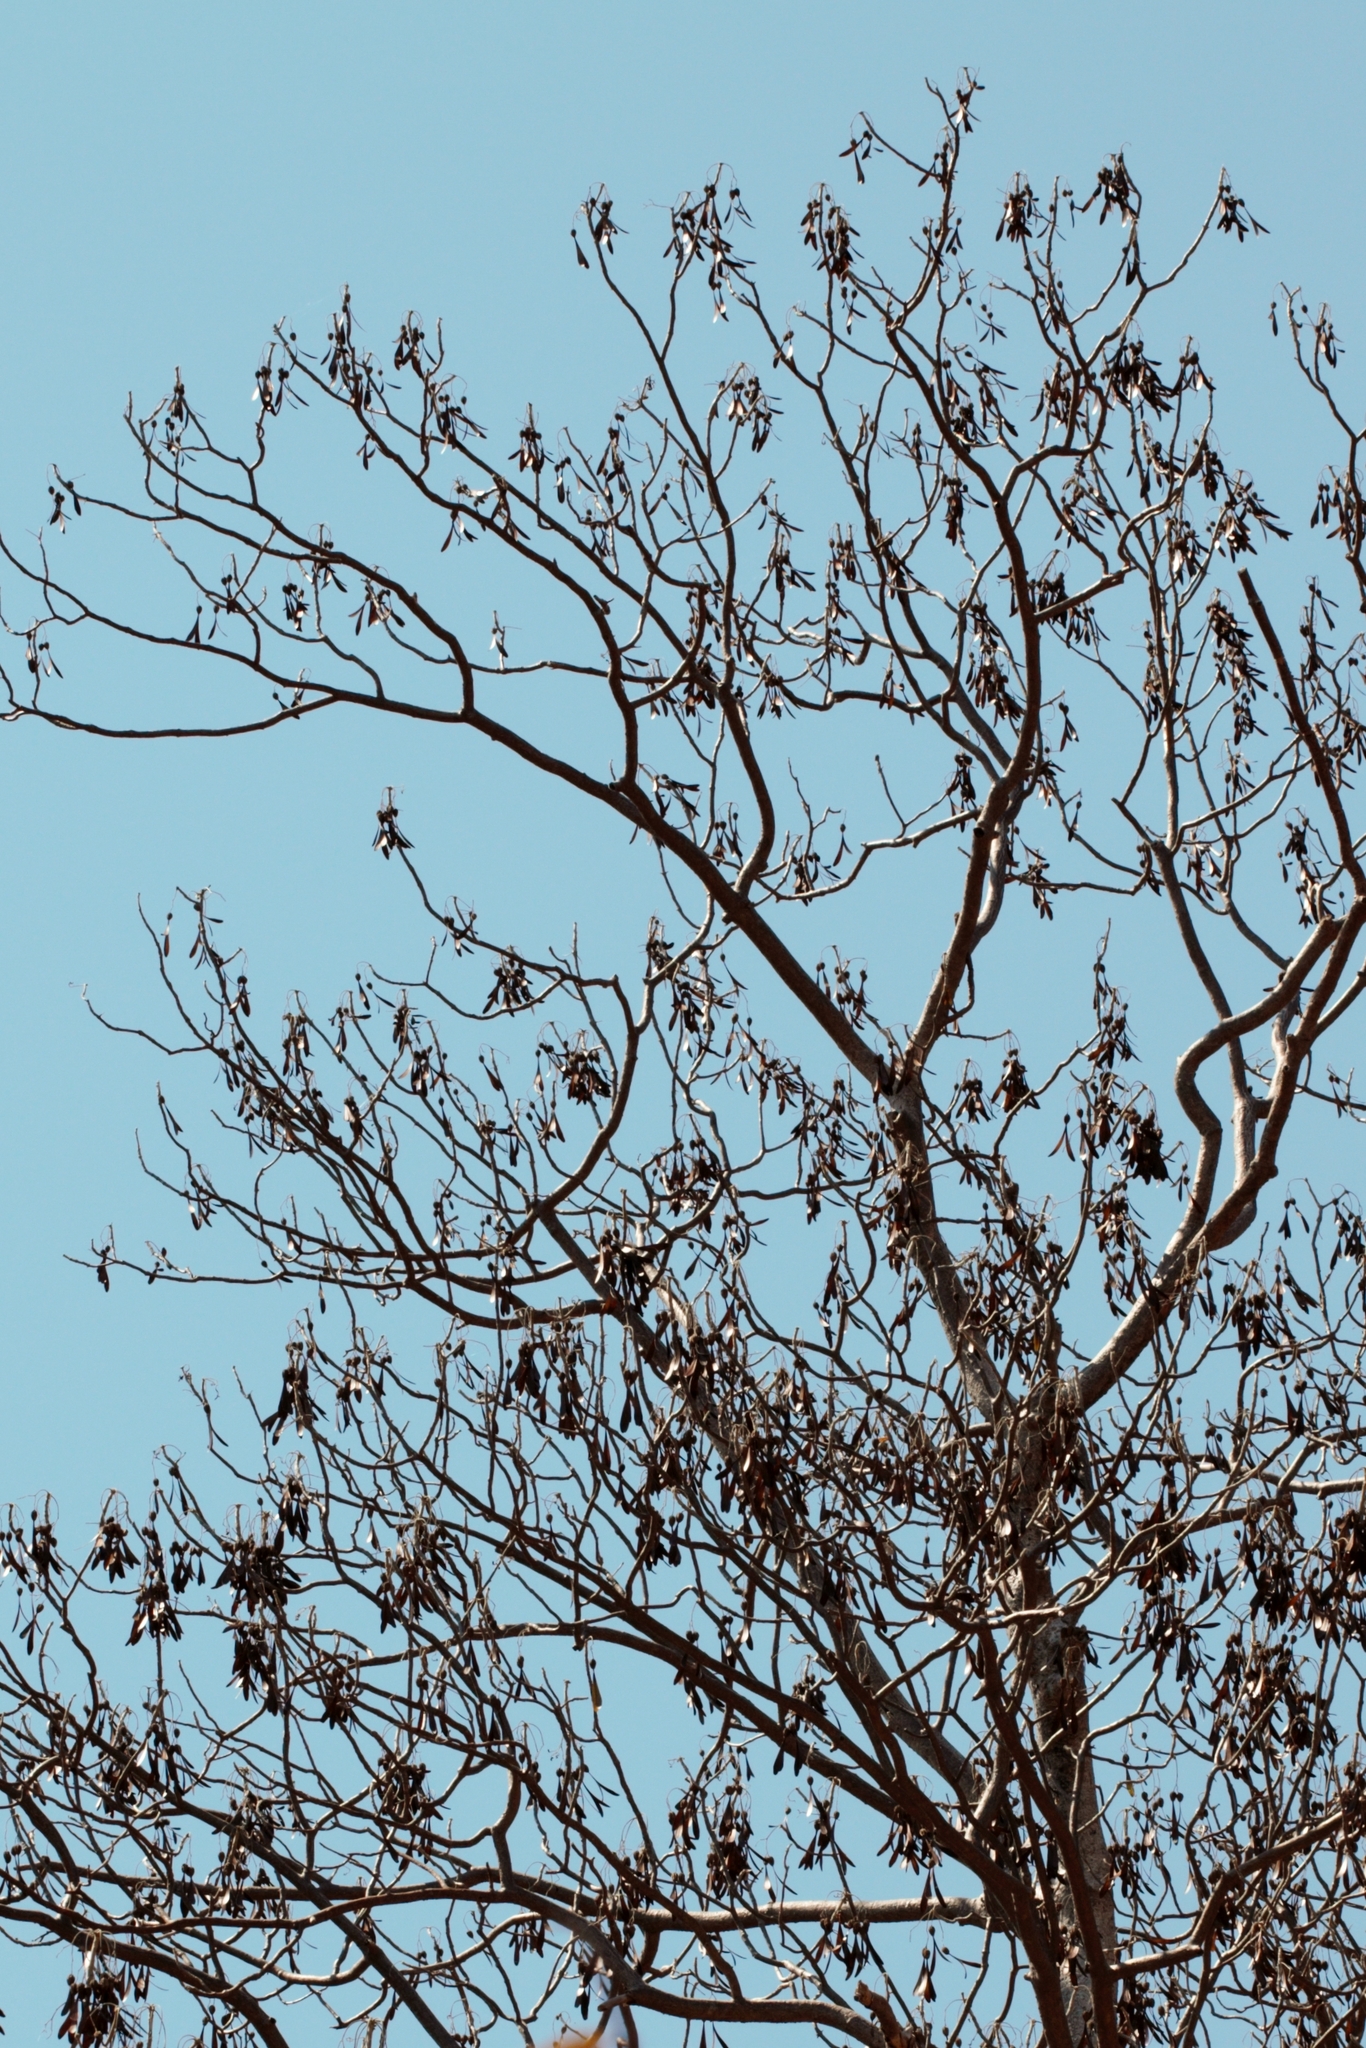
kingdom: Plantae
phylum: Tracheophyta
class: Magnoliopsida
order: Laurales
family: Hernandiaceae
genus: Gyrocarpus
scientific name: Gyrocarpus americanus
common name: Gyro damson
